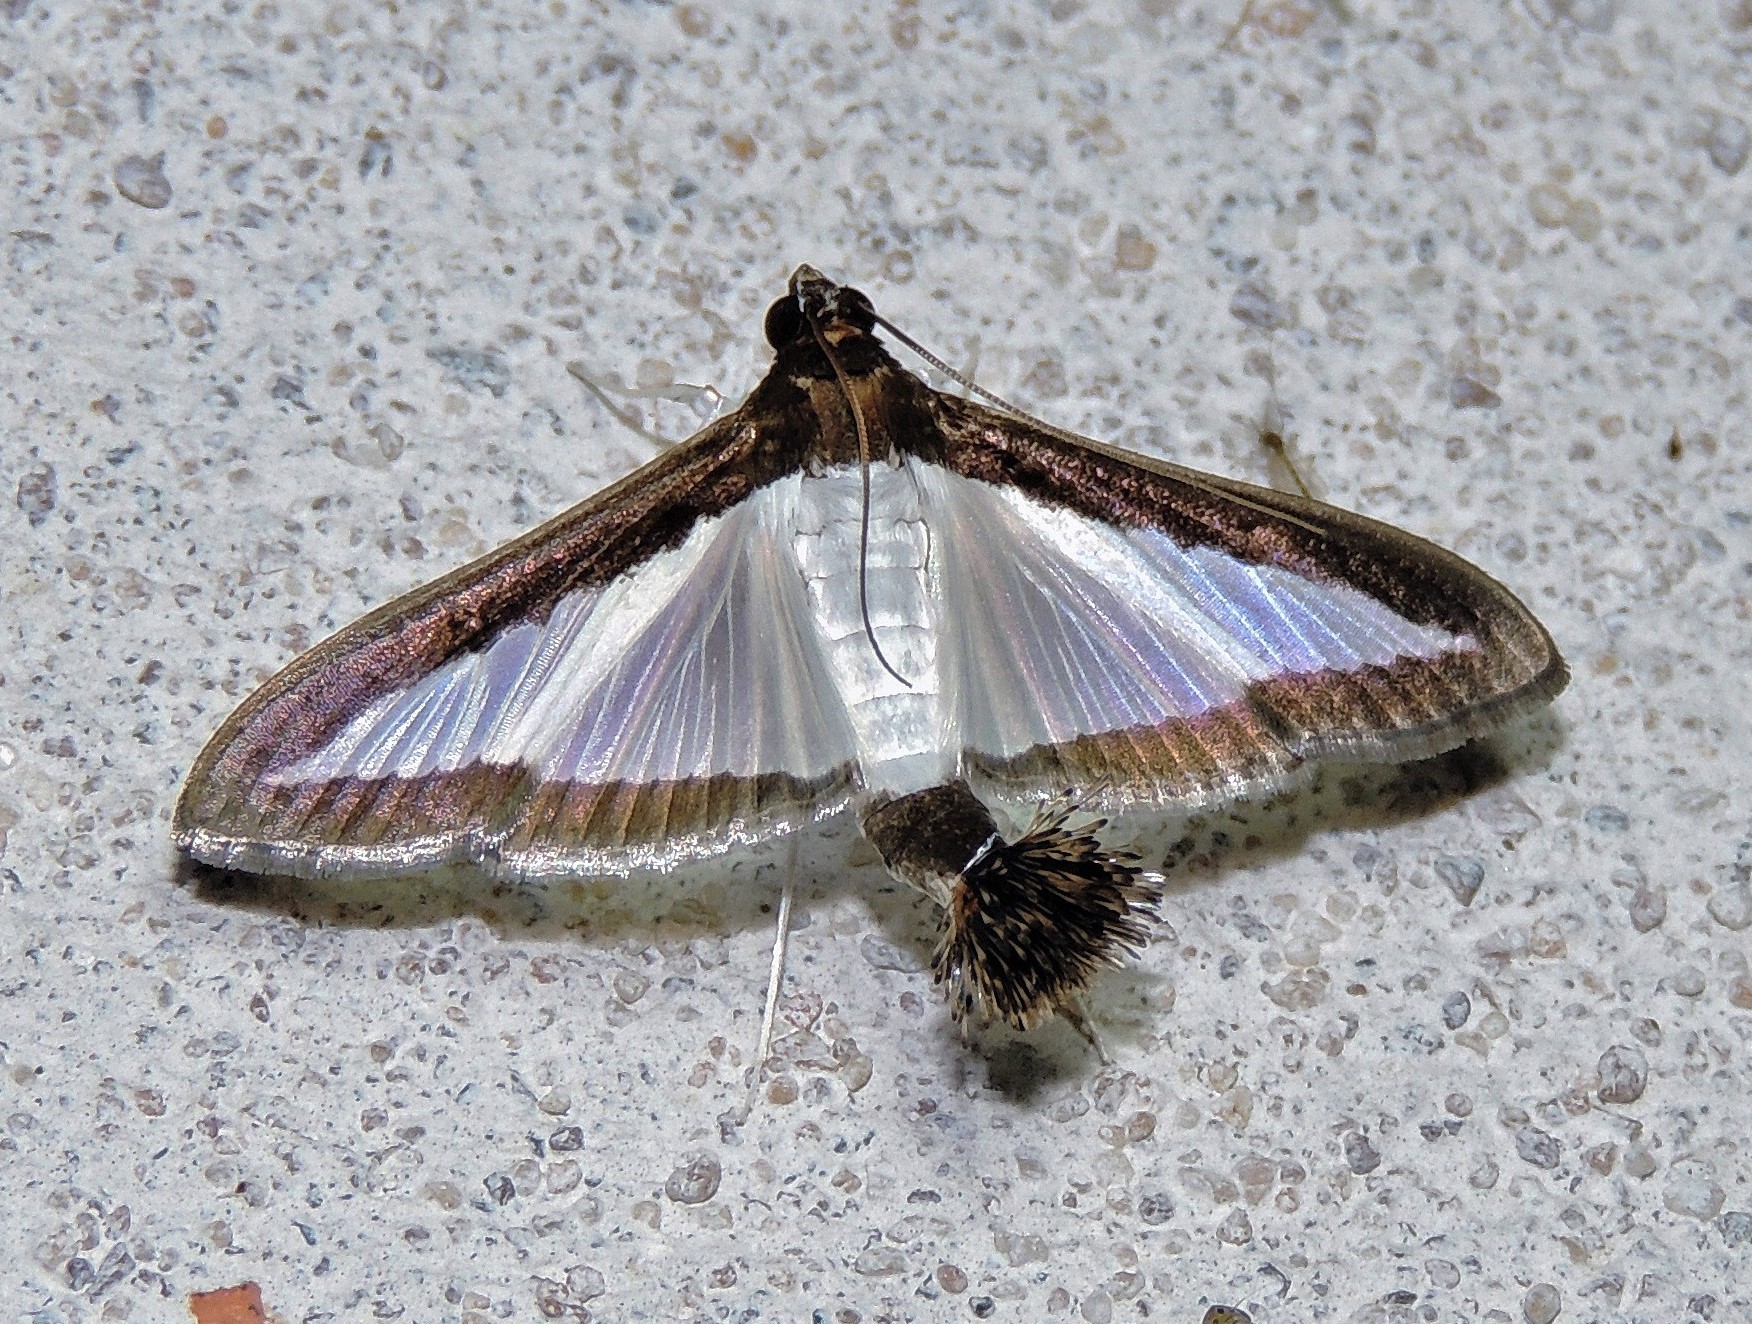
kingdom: Animalia
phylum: Arthropoda
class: Insecta
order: Lepidoptera
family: Crambidae
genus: Diaphania
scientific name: Diaphania hyalinata
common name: Melonworm
